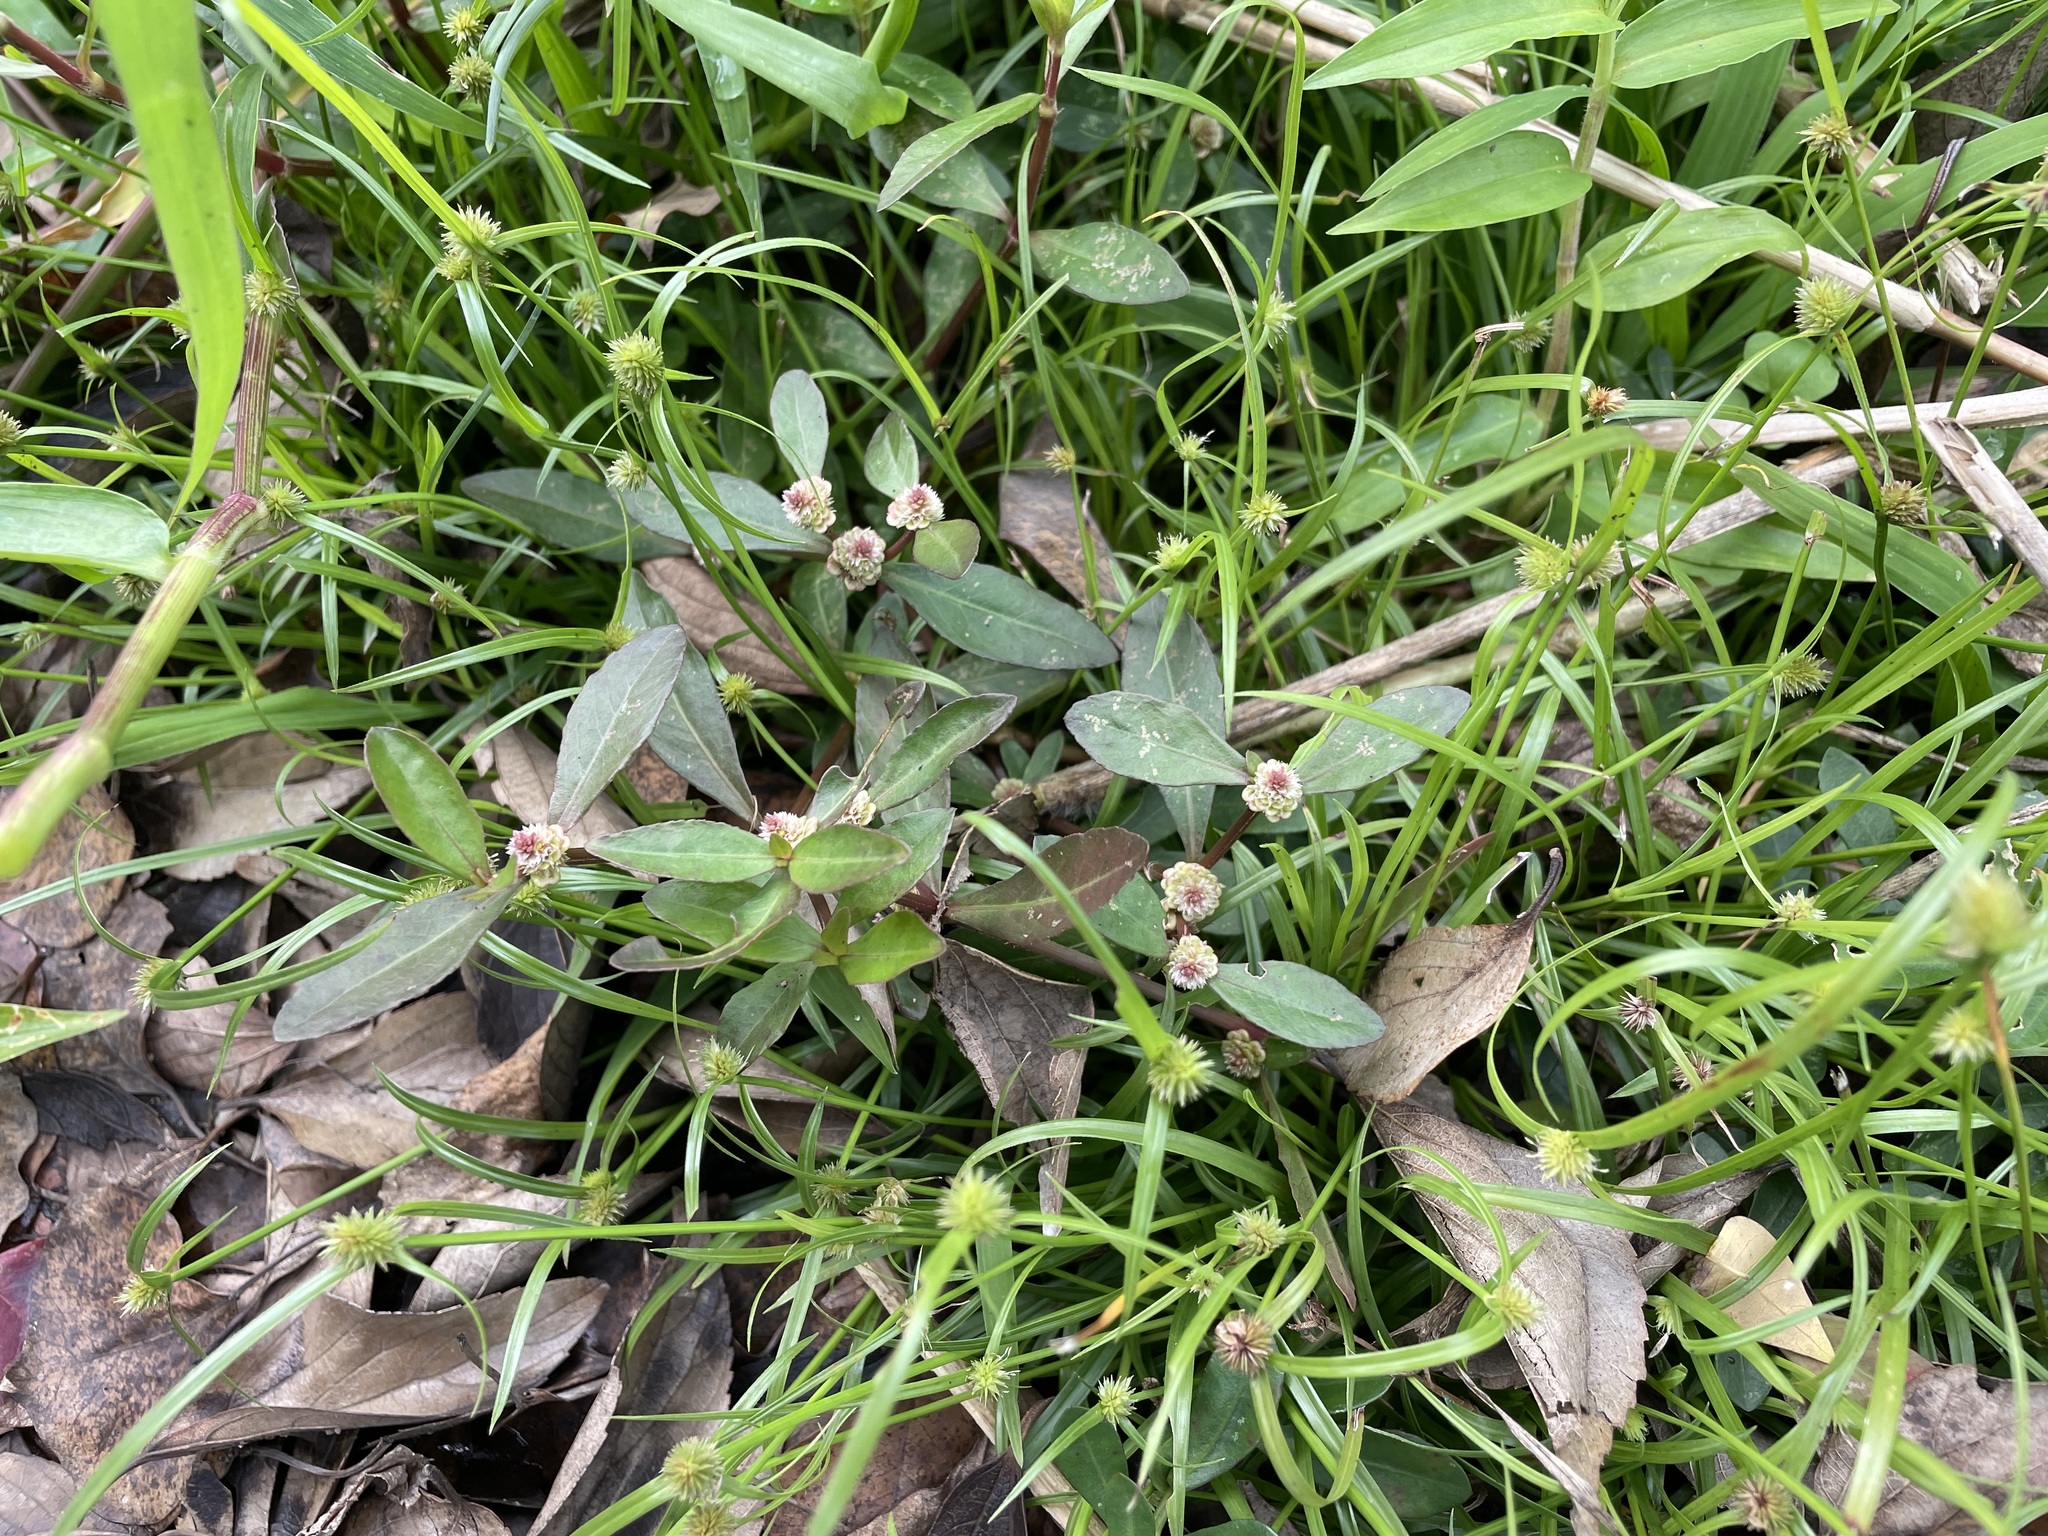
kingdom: Plantae
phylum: Tracheophyta
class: Magnoliopsida
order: Caryophyllales
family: Amaranthaceae
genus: Alternanthera
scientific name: Alternanthera sessilis
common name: Sessile joyweed
